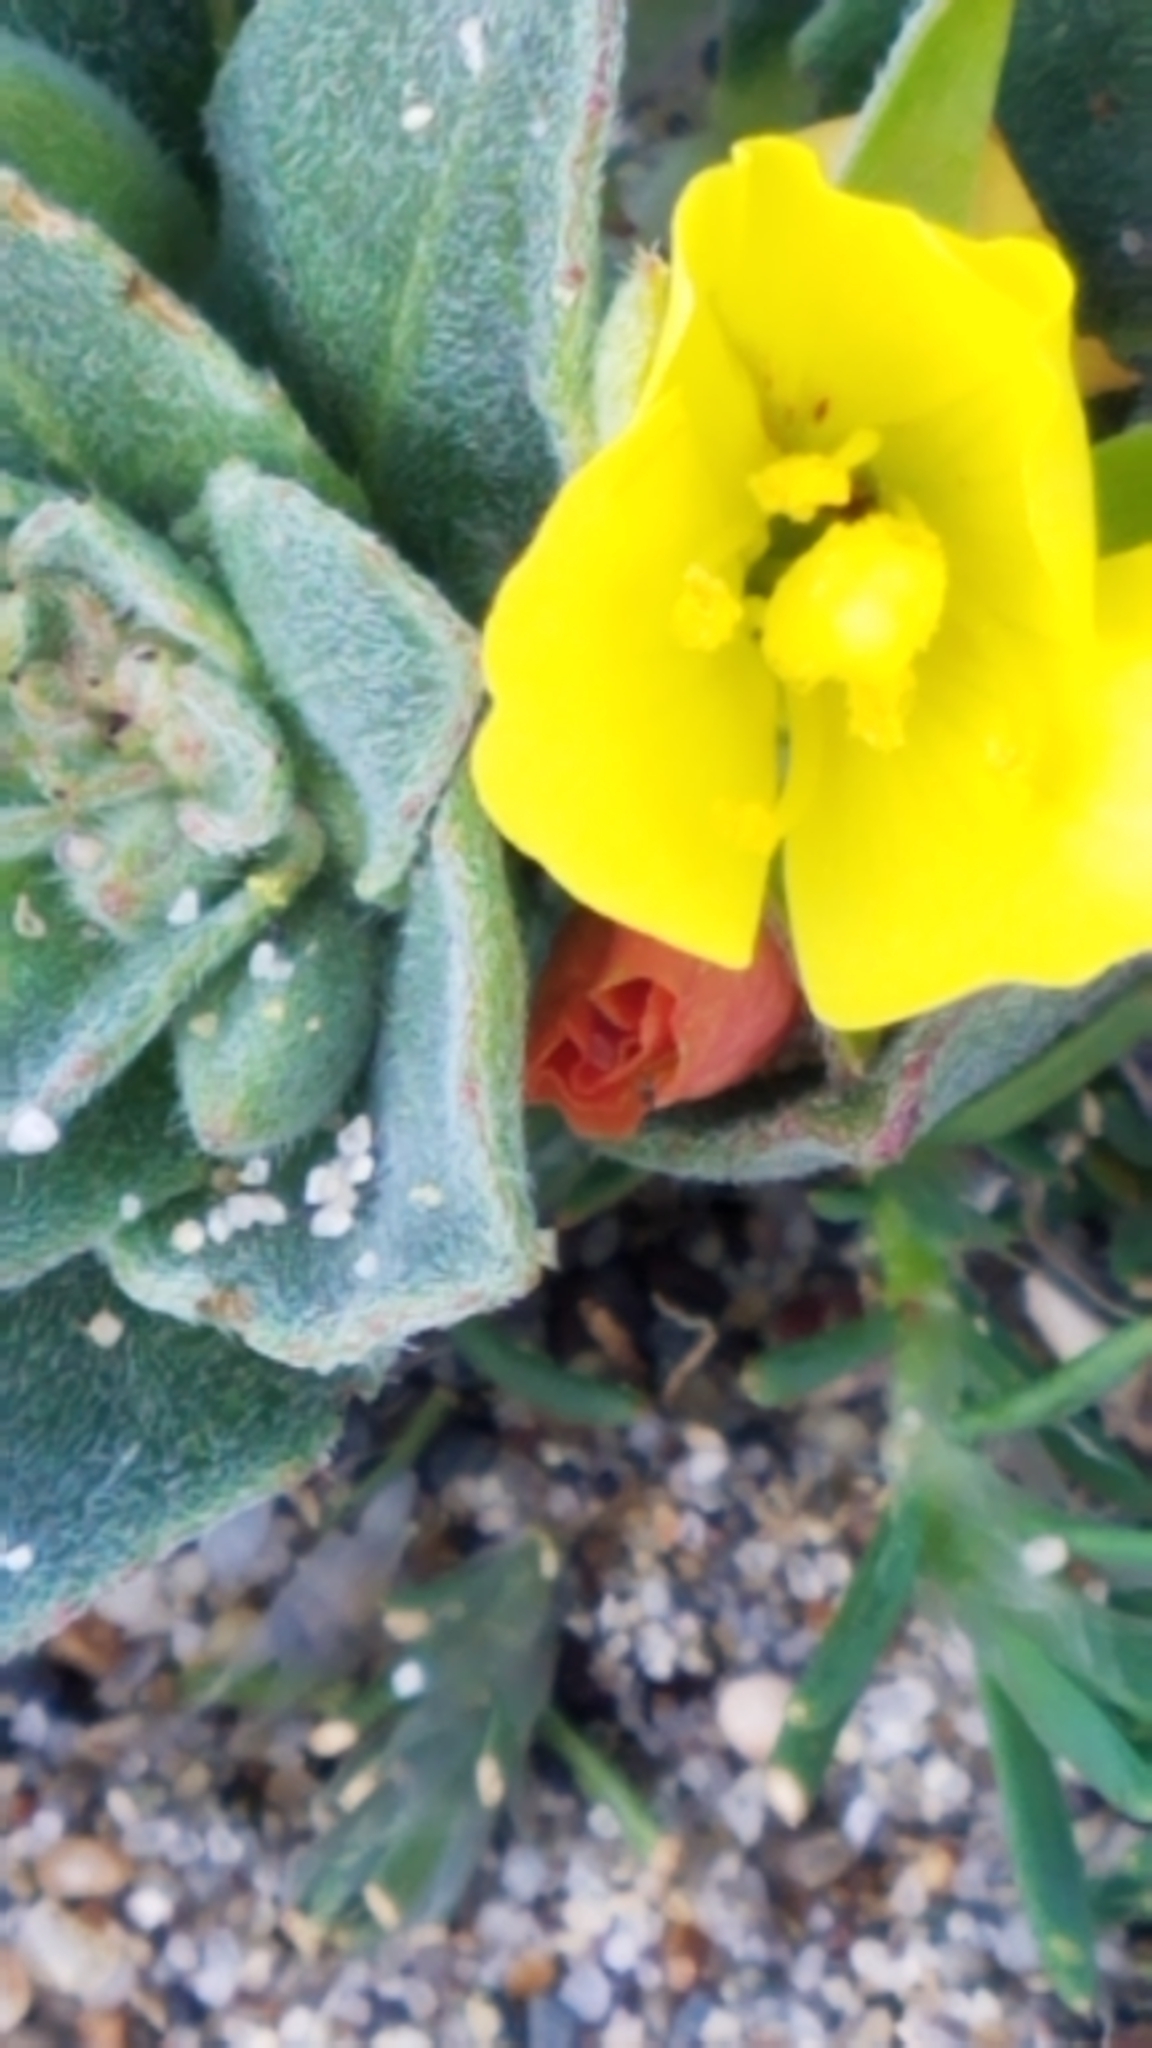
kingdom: Plantae
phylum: Tracheophyta
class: Magnoliopsida
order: Myrtales
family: Onagraceae
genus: Camissoniopsis
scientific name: Camissoniopsis cheiranthifolia
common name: Beach suncup
